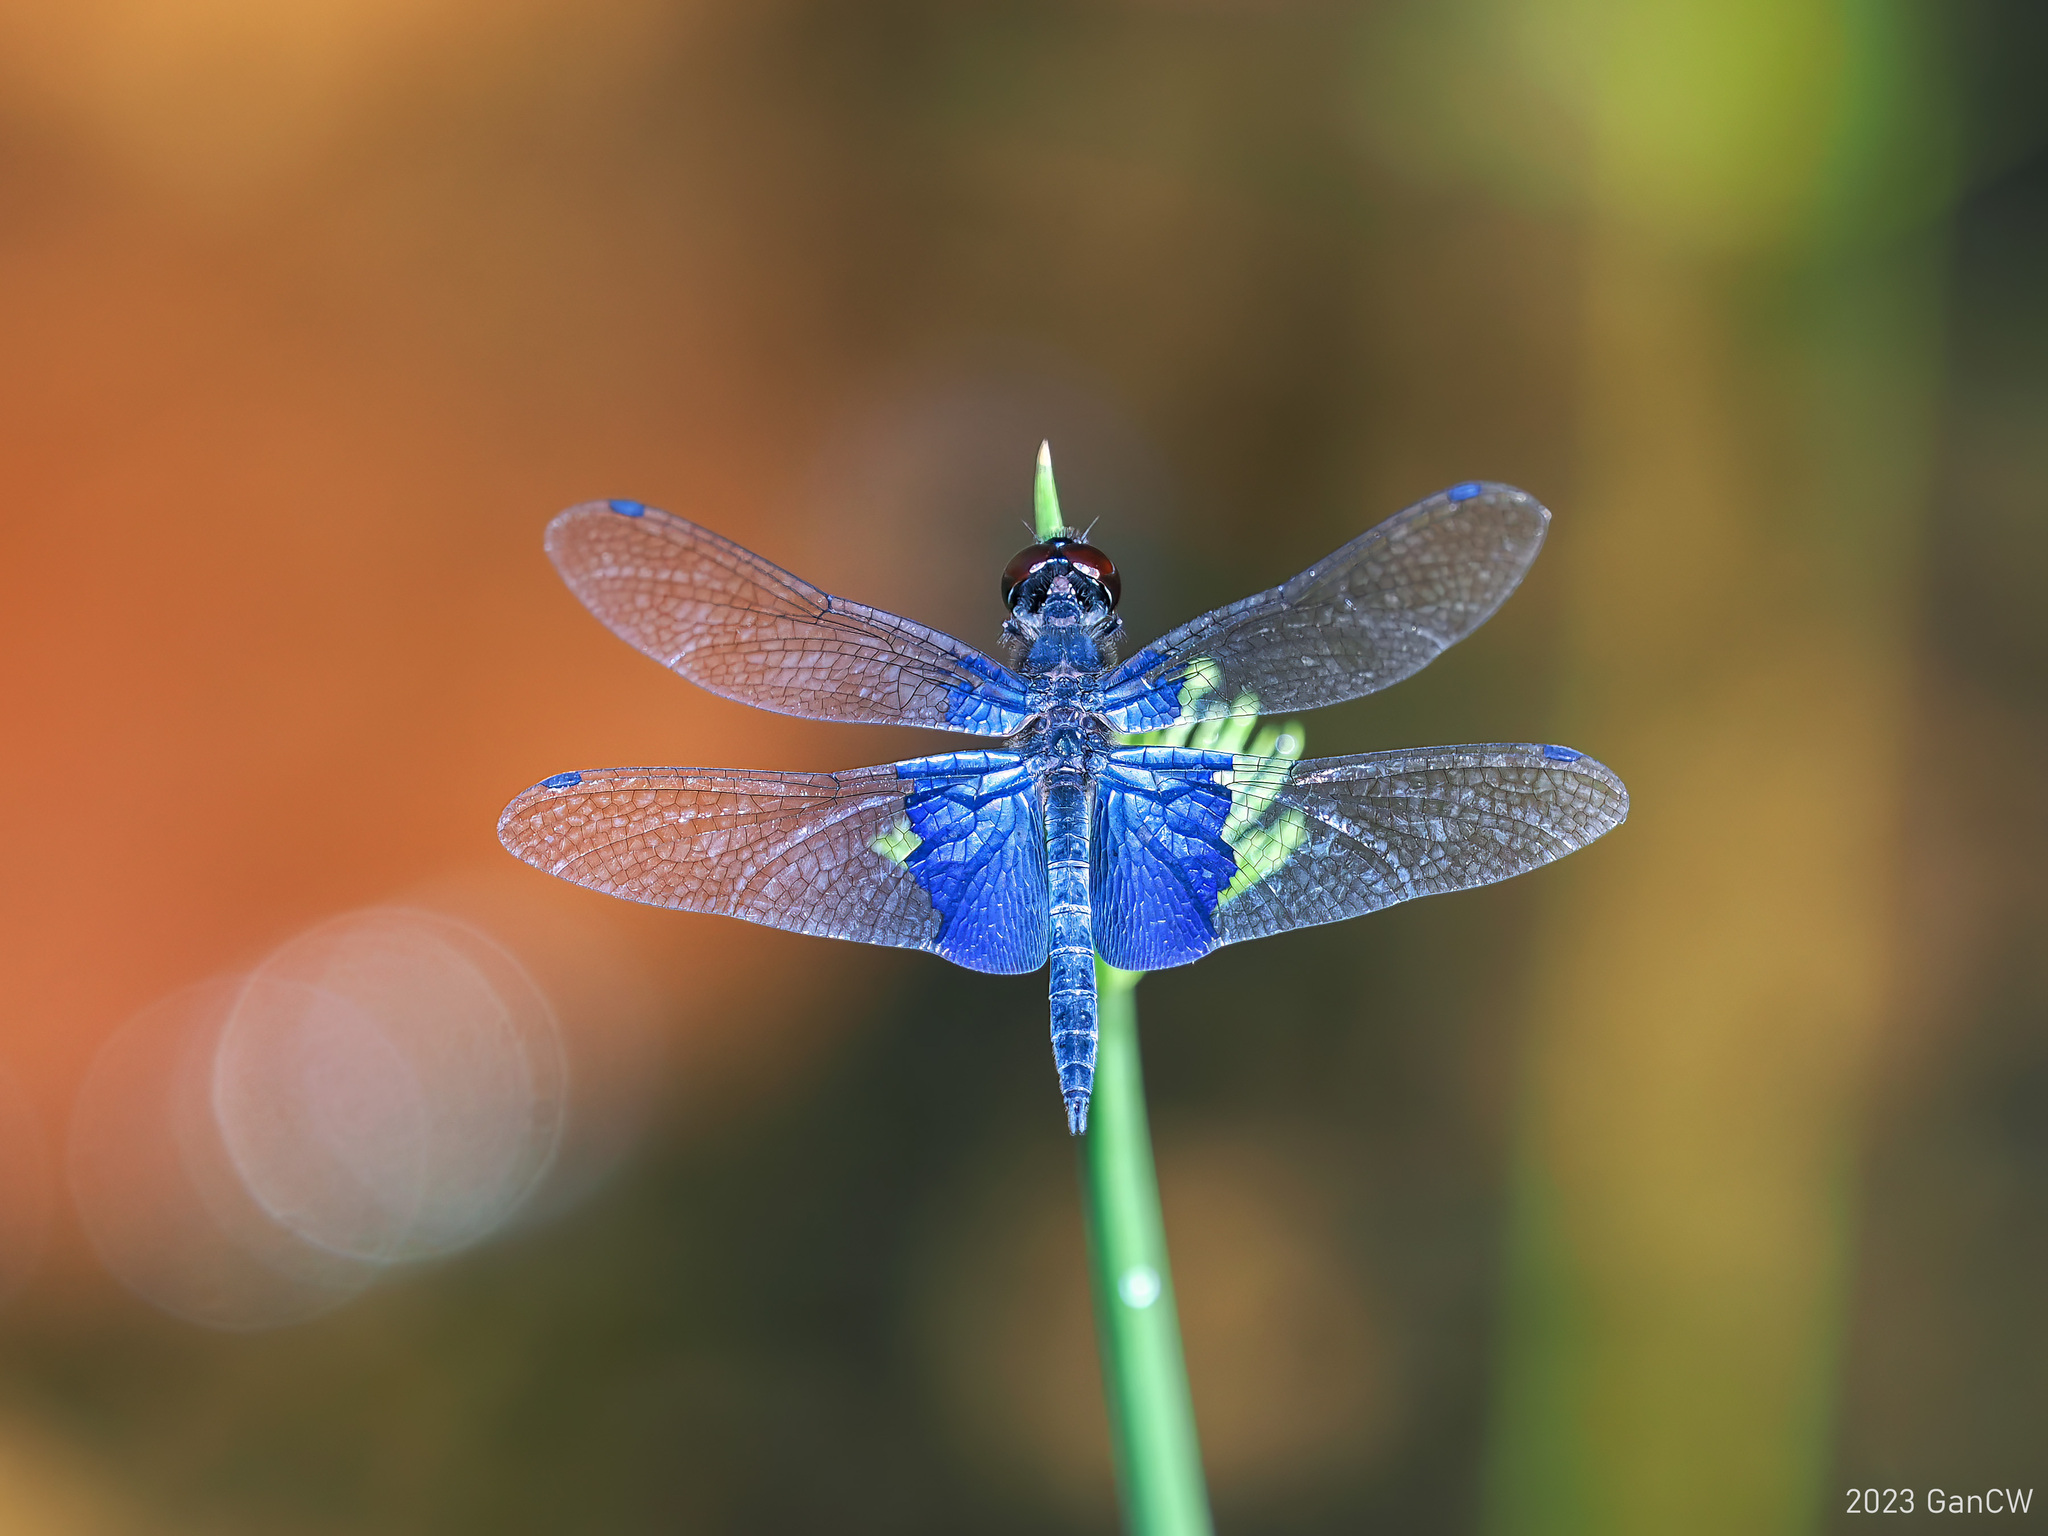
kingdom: Animalia
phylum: Arthropoda
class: Insecta
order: Odonata
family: Libellulidae
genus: Rhyothemis
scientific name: Rhyothemis triangularis
